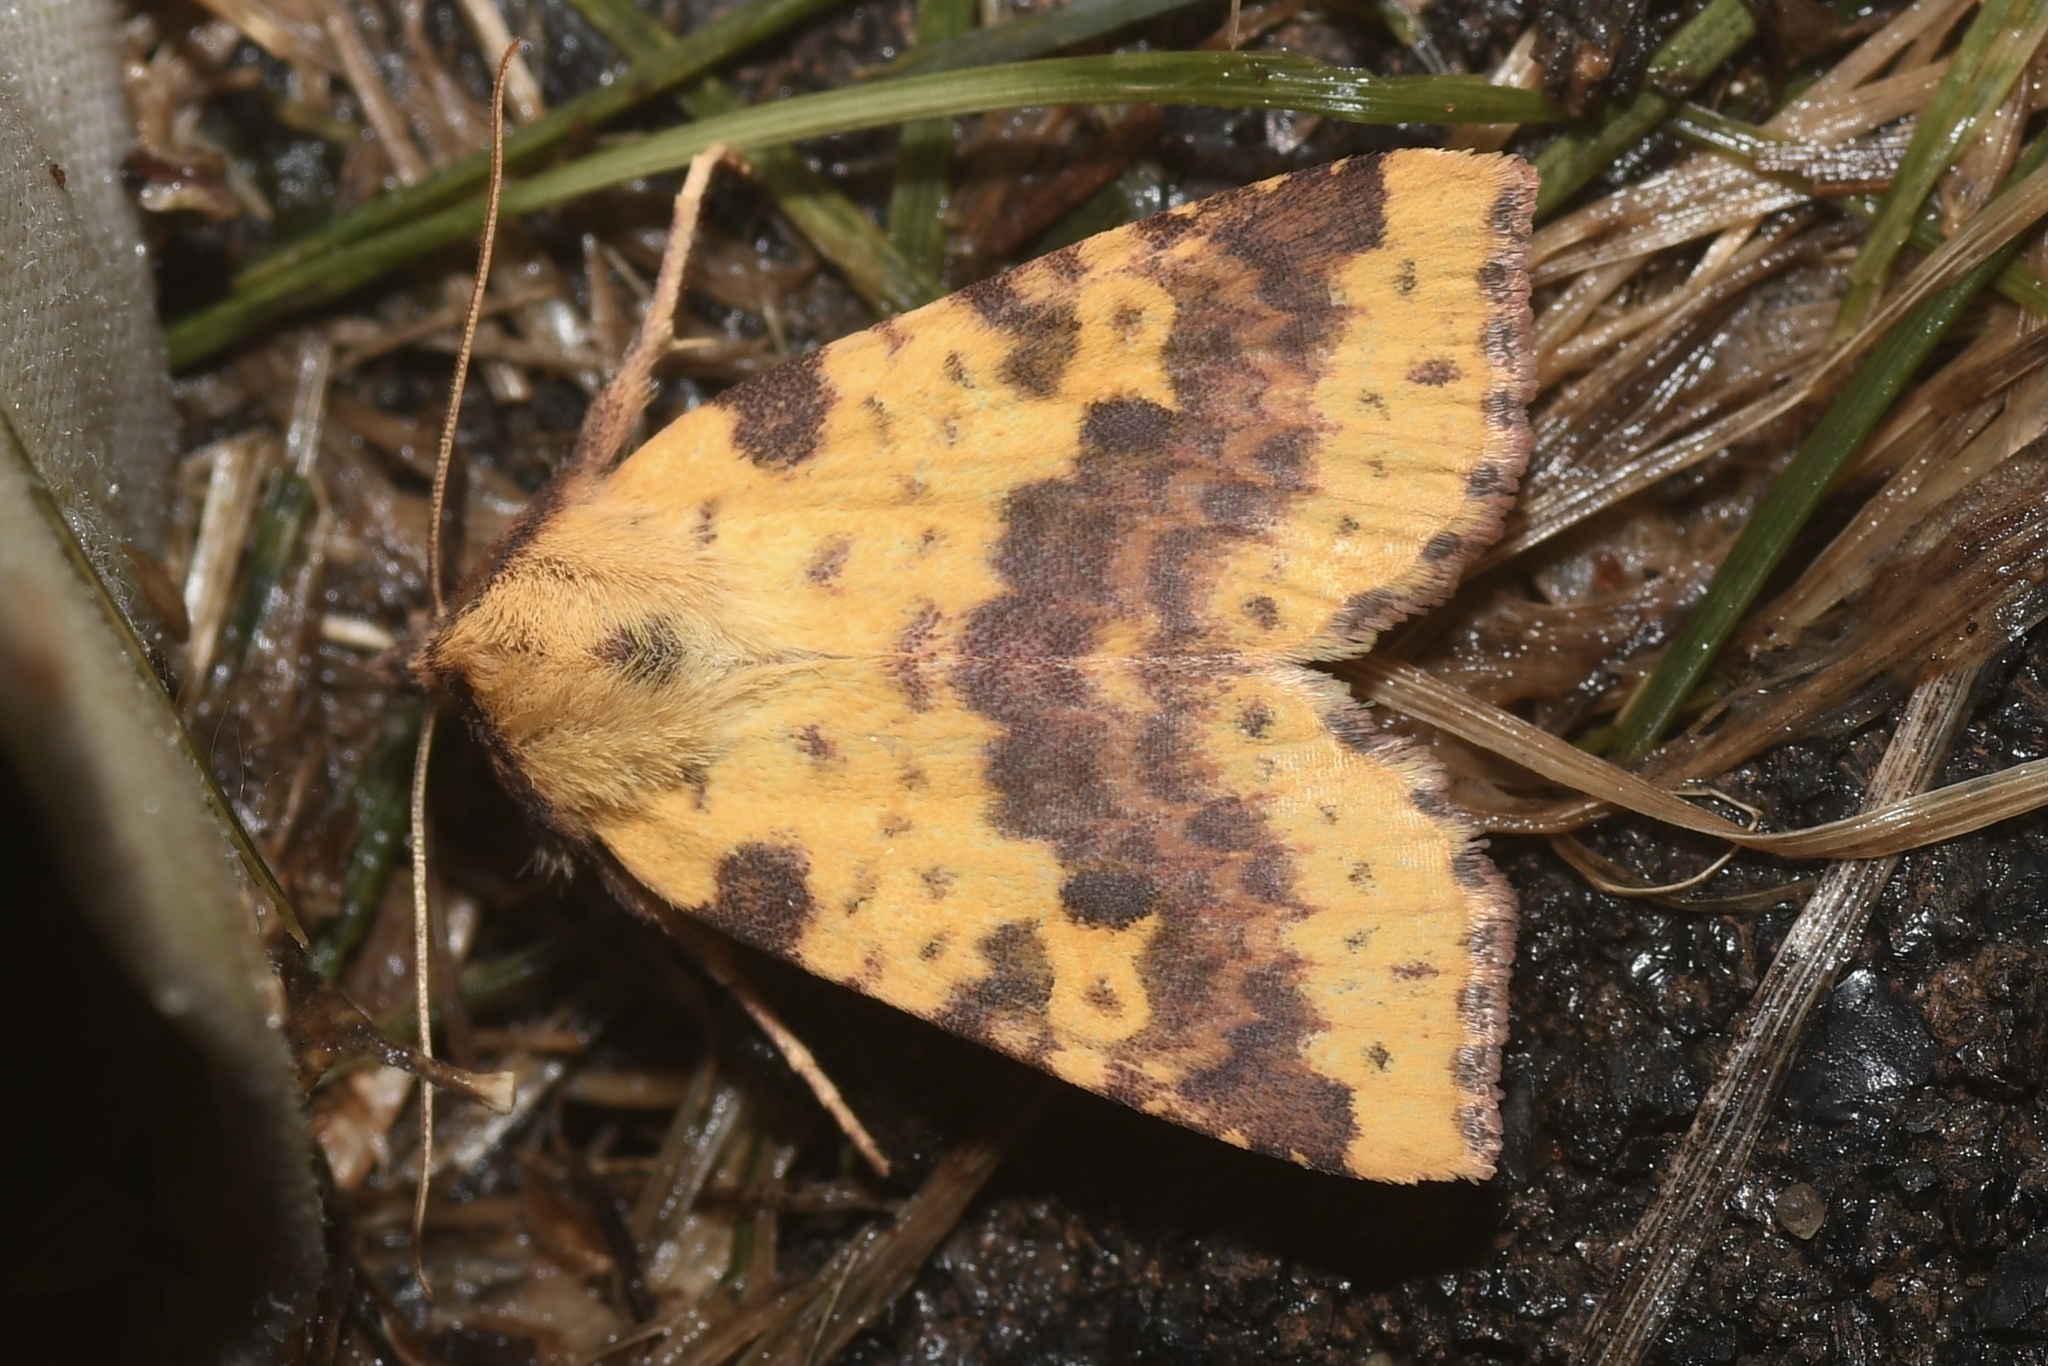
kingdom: Animalia
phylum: Arthropoda
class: Insecta
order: Lepidoptera
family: Noctuidae
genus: Xanthia
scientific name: Xanthia tatago
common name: Pink-banded sallow
